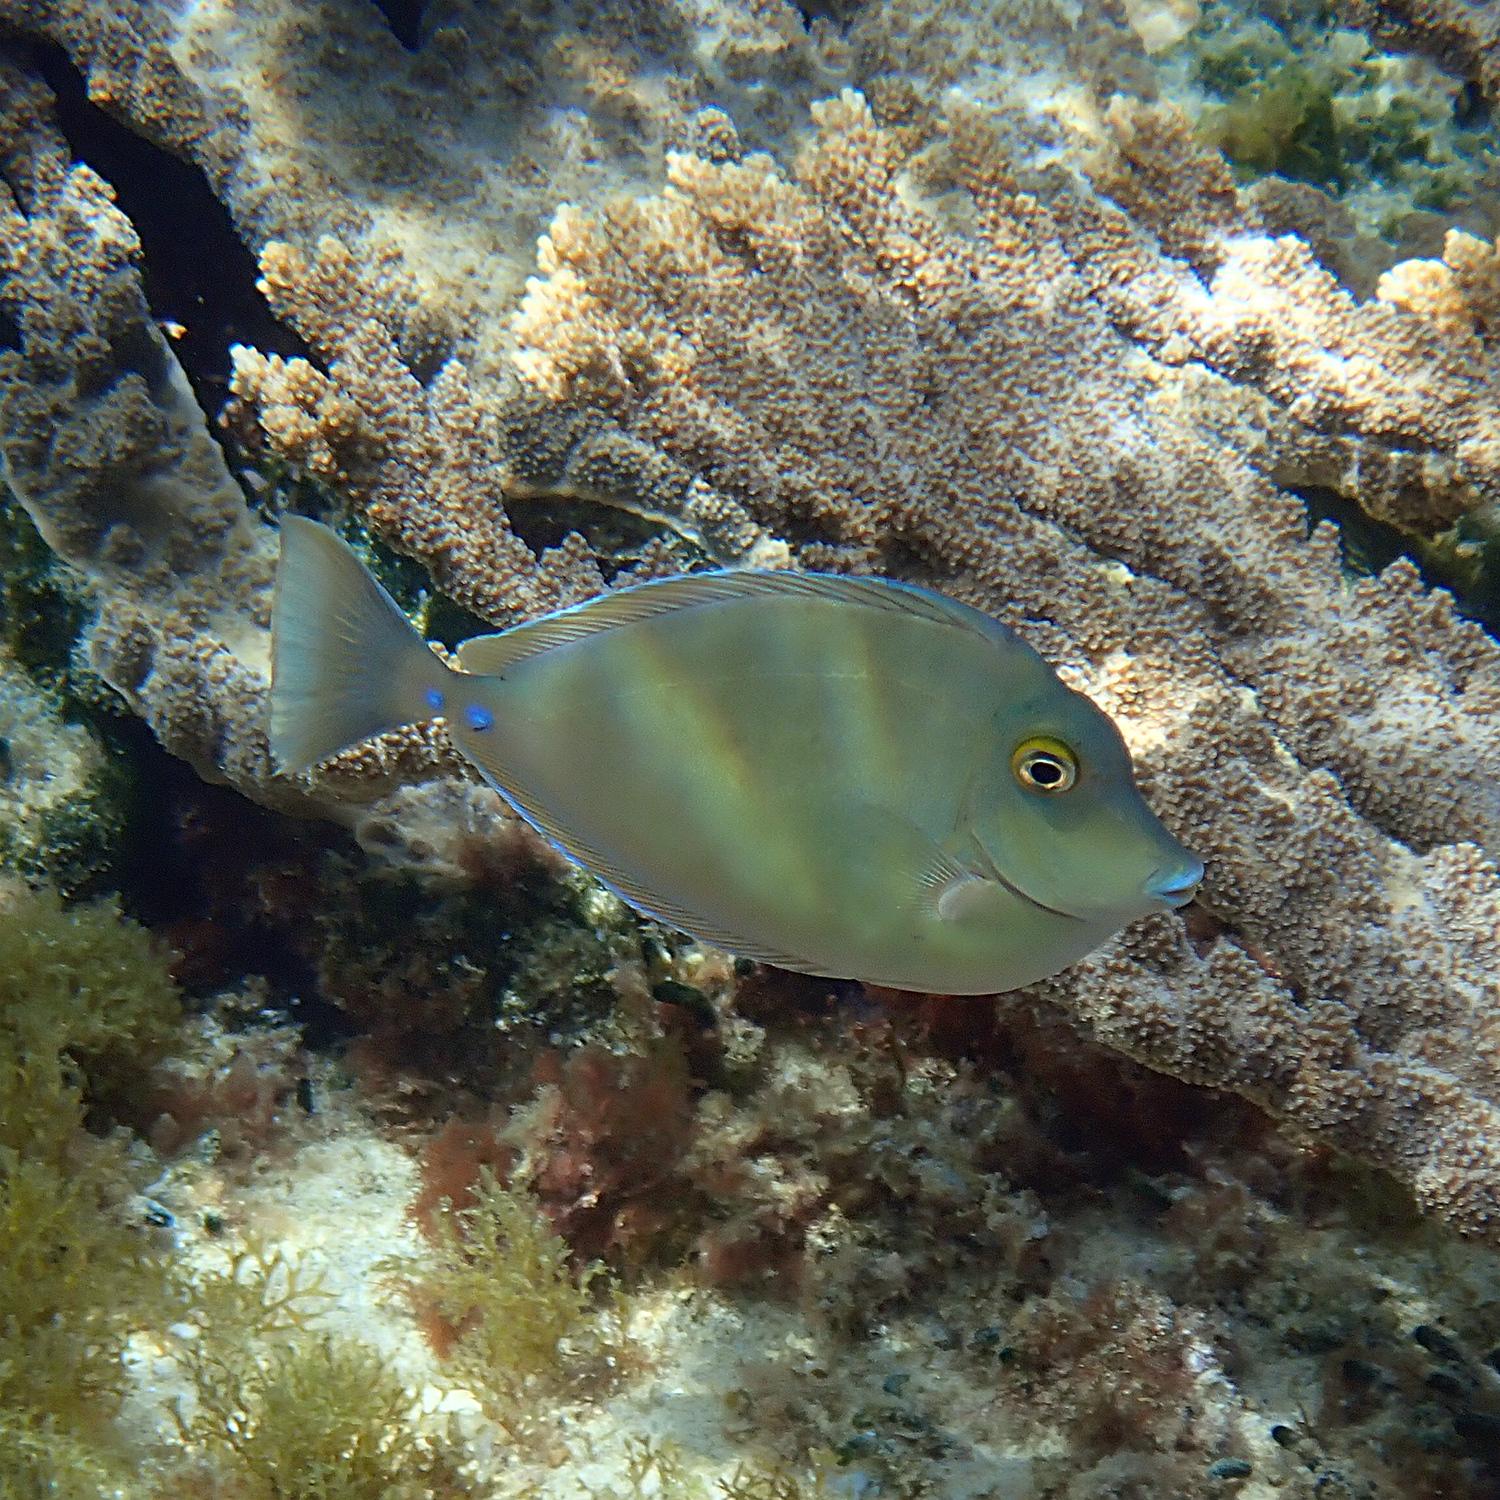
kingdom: Animalia
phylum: Chordata
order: Perciformes
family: Acanthuridae
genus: Naso
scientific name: Naso unicornis
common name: Bluespine unicornfish
